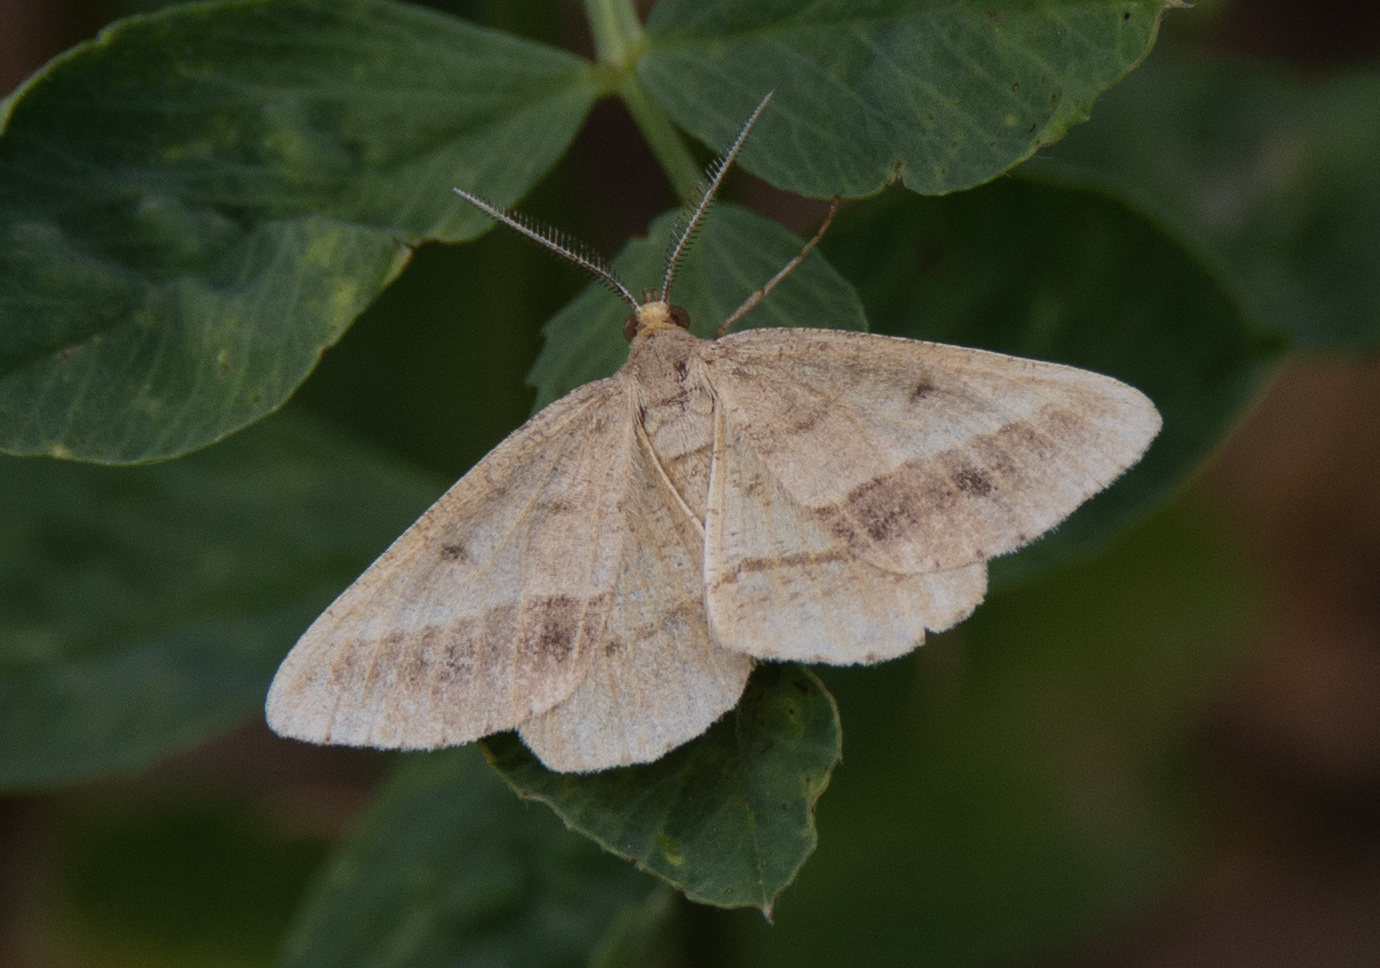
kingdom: Animalia
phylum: Arthropoda
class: Insecta
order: Lepidoptera
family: Geometridae
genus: Tephrina
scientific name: Tephrina arenacearia
